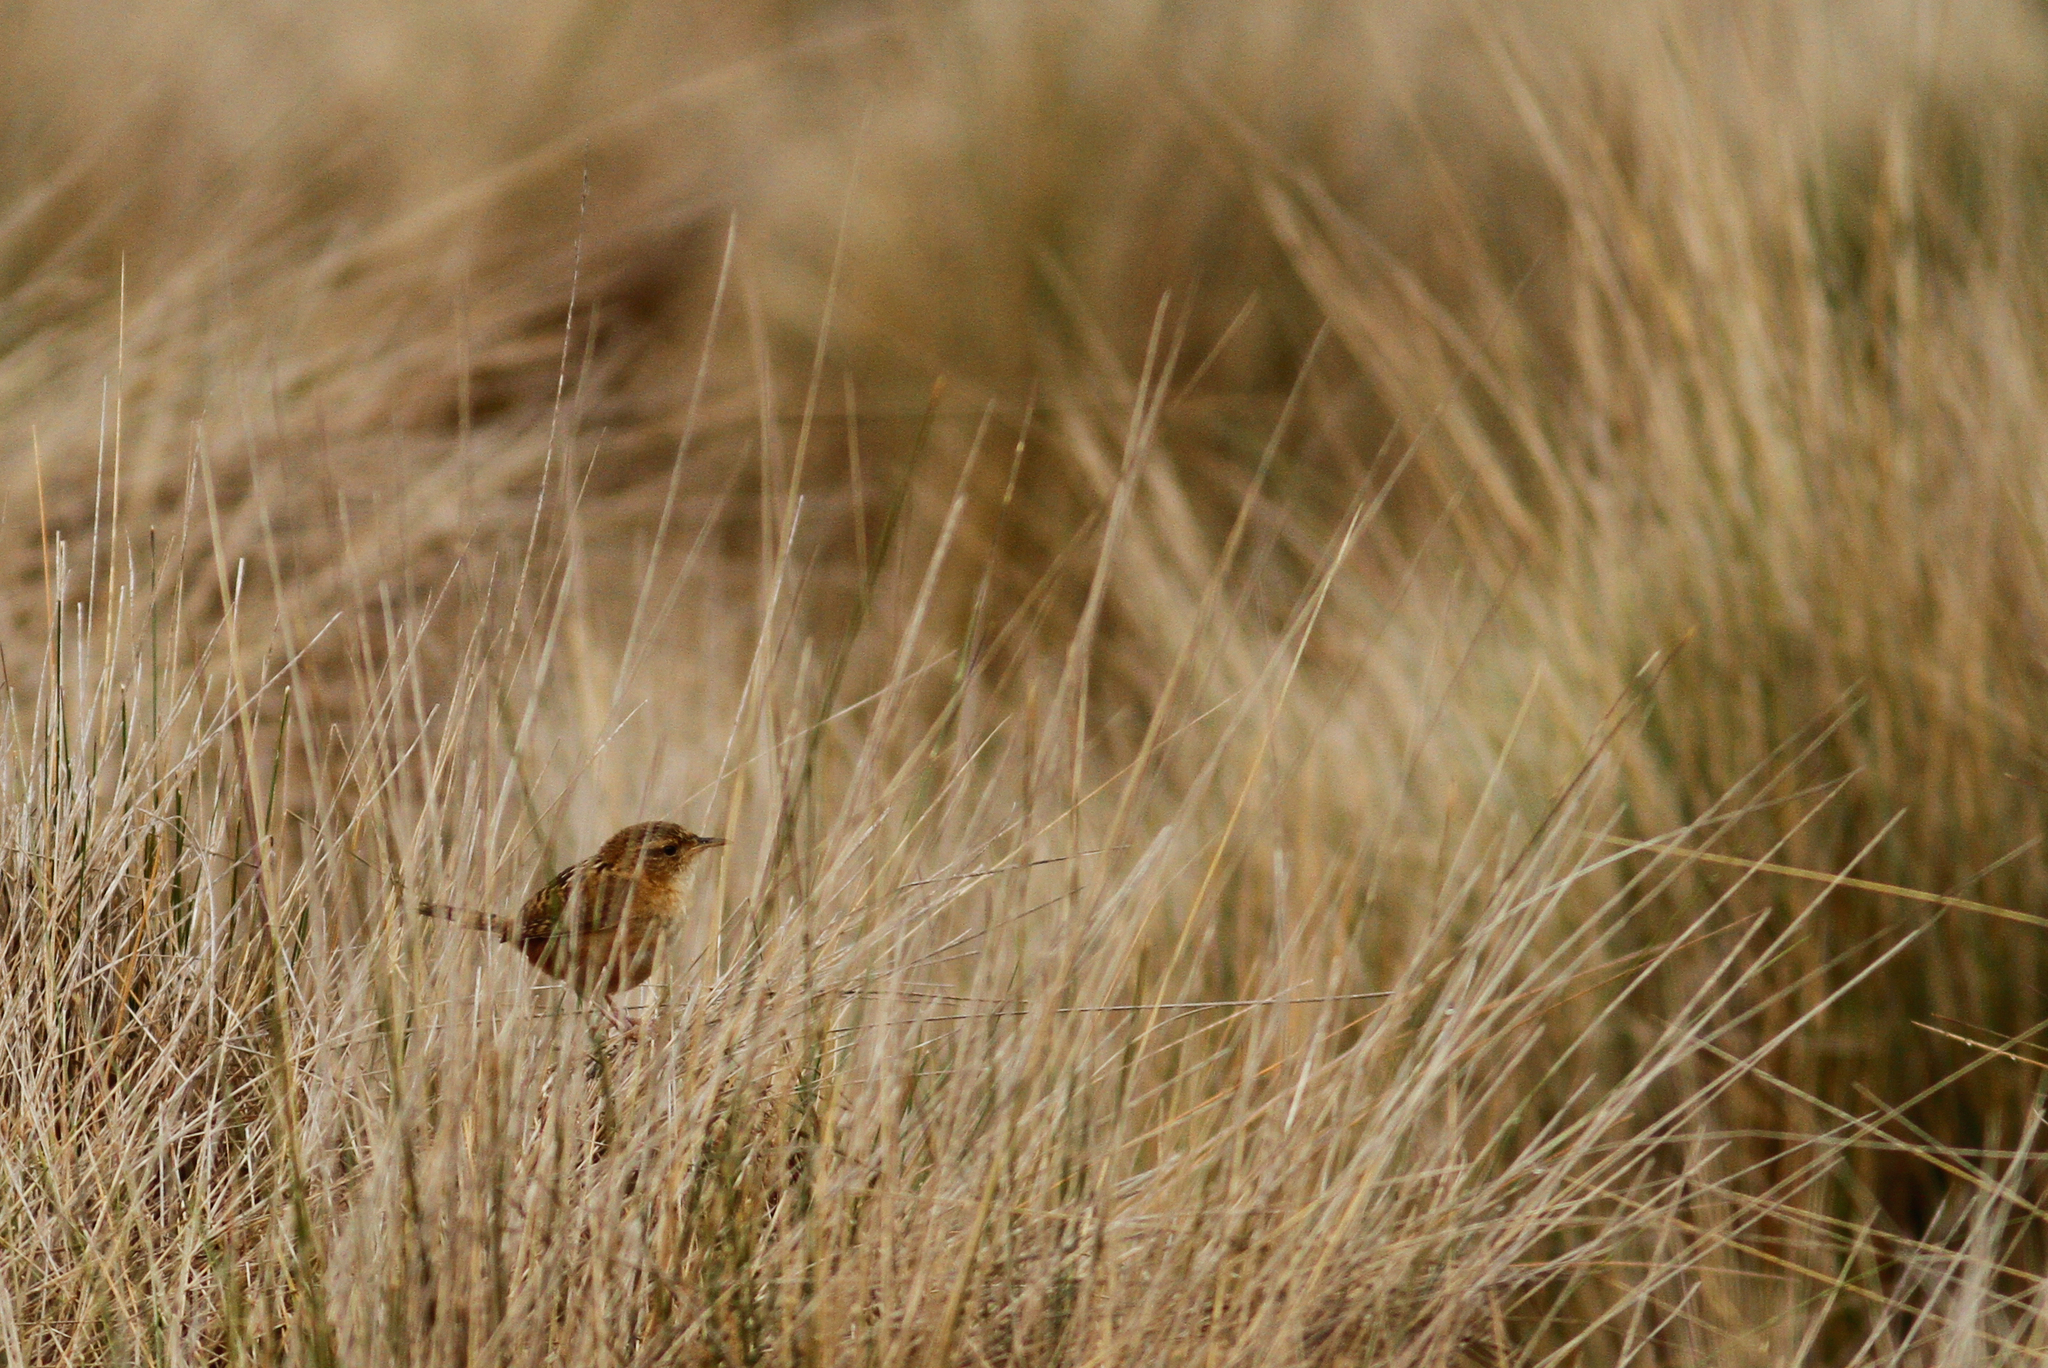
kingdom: Animalia
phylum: Chordata
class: Aves
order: Passeriformes
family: Troglodytidae
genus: Cistothorus
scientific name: Cistothorus platensis
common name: Sedge wren
